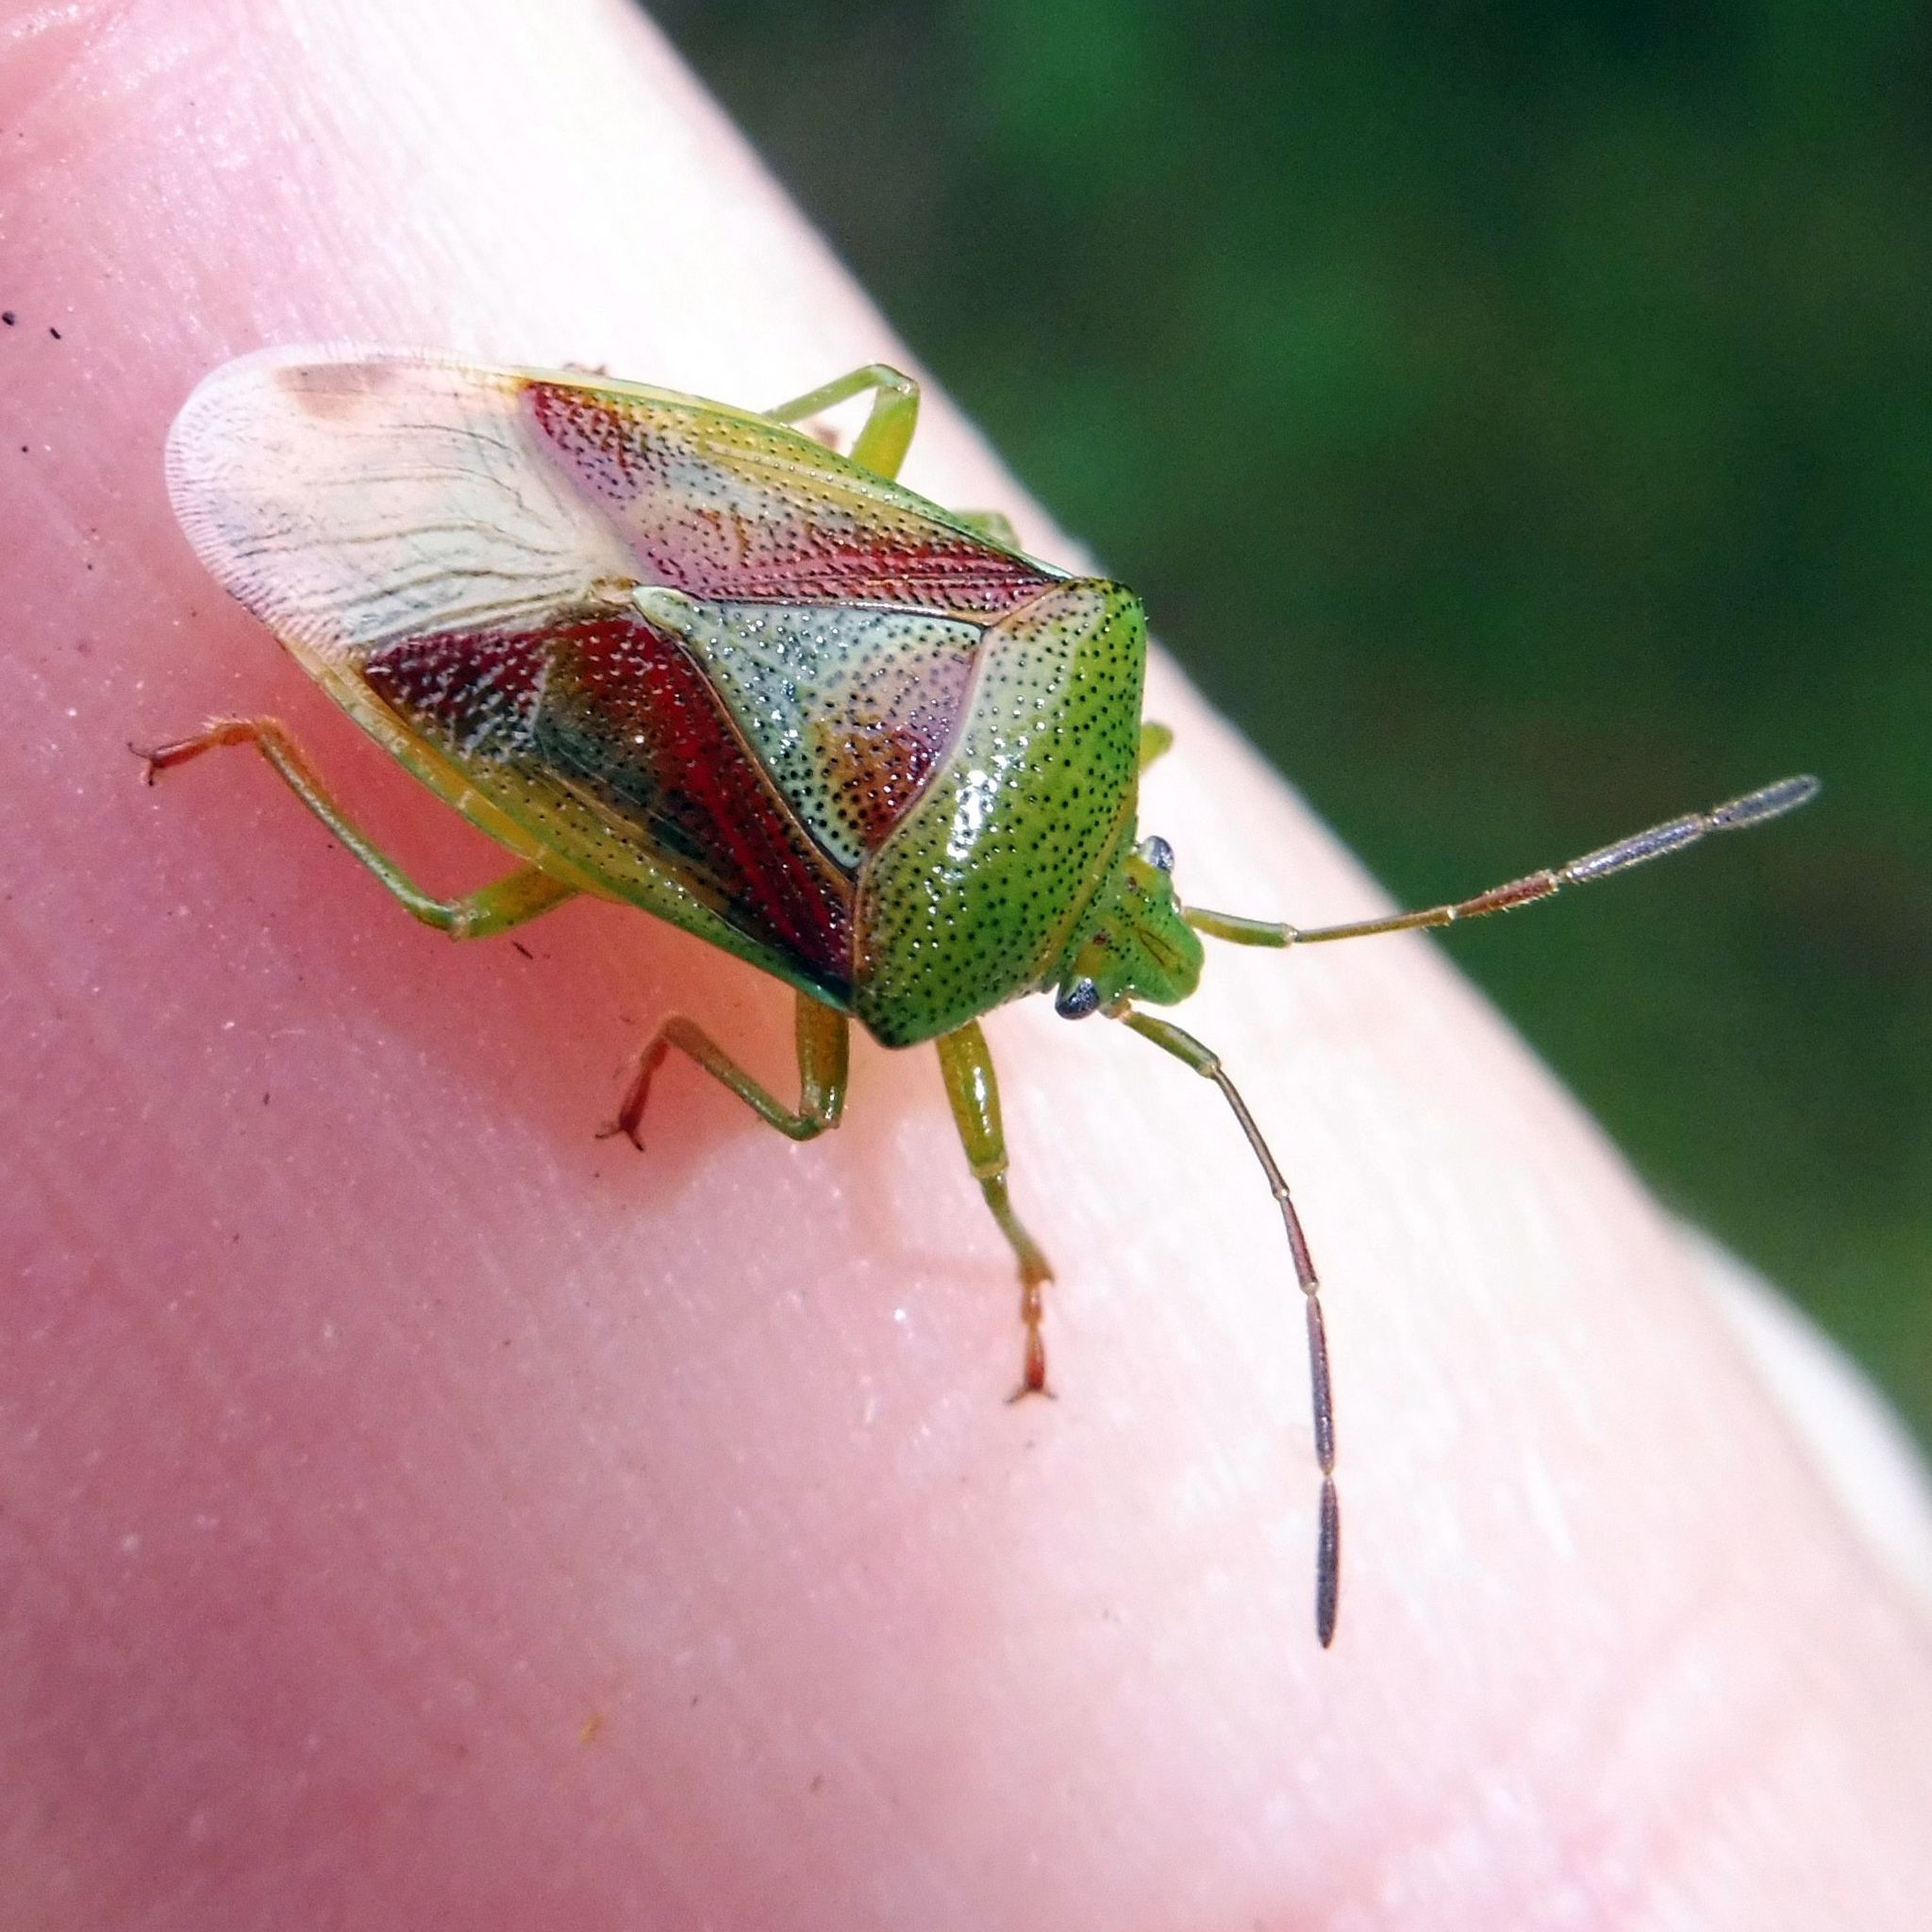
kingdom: Animalia
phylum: Arthropoda
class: Insecta
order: Hemiptera
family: Acanthosomatidae
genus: Elasmostethus
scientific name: Elasmostethus interstinctus
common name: Birch shieldbug
